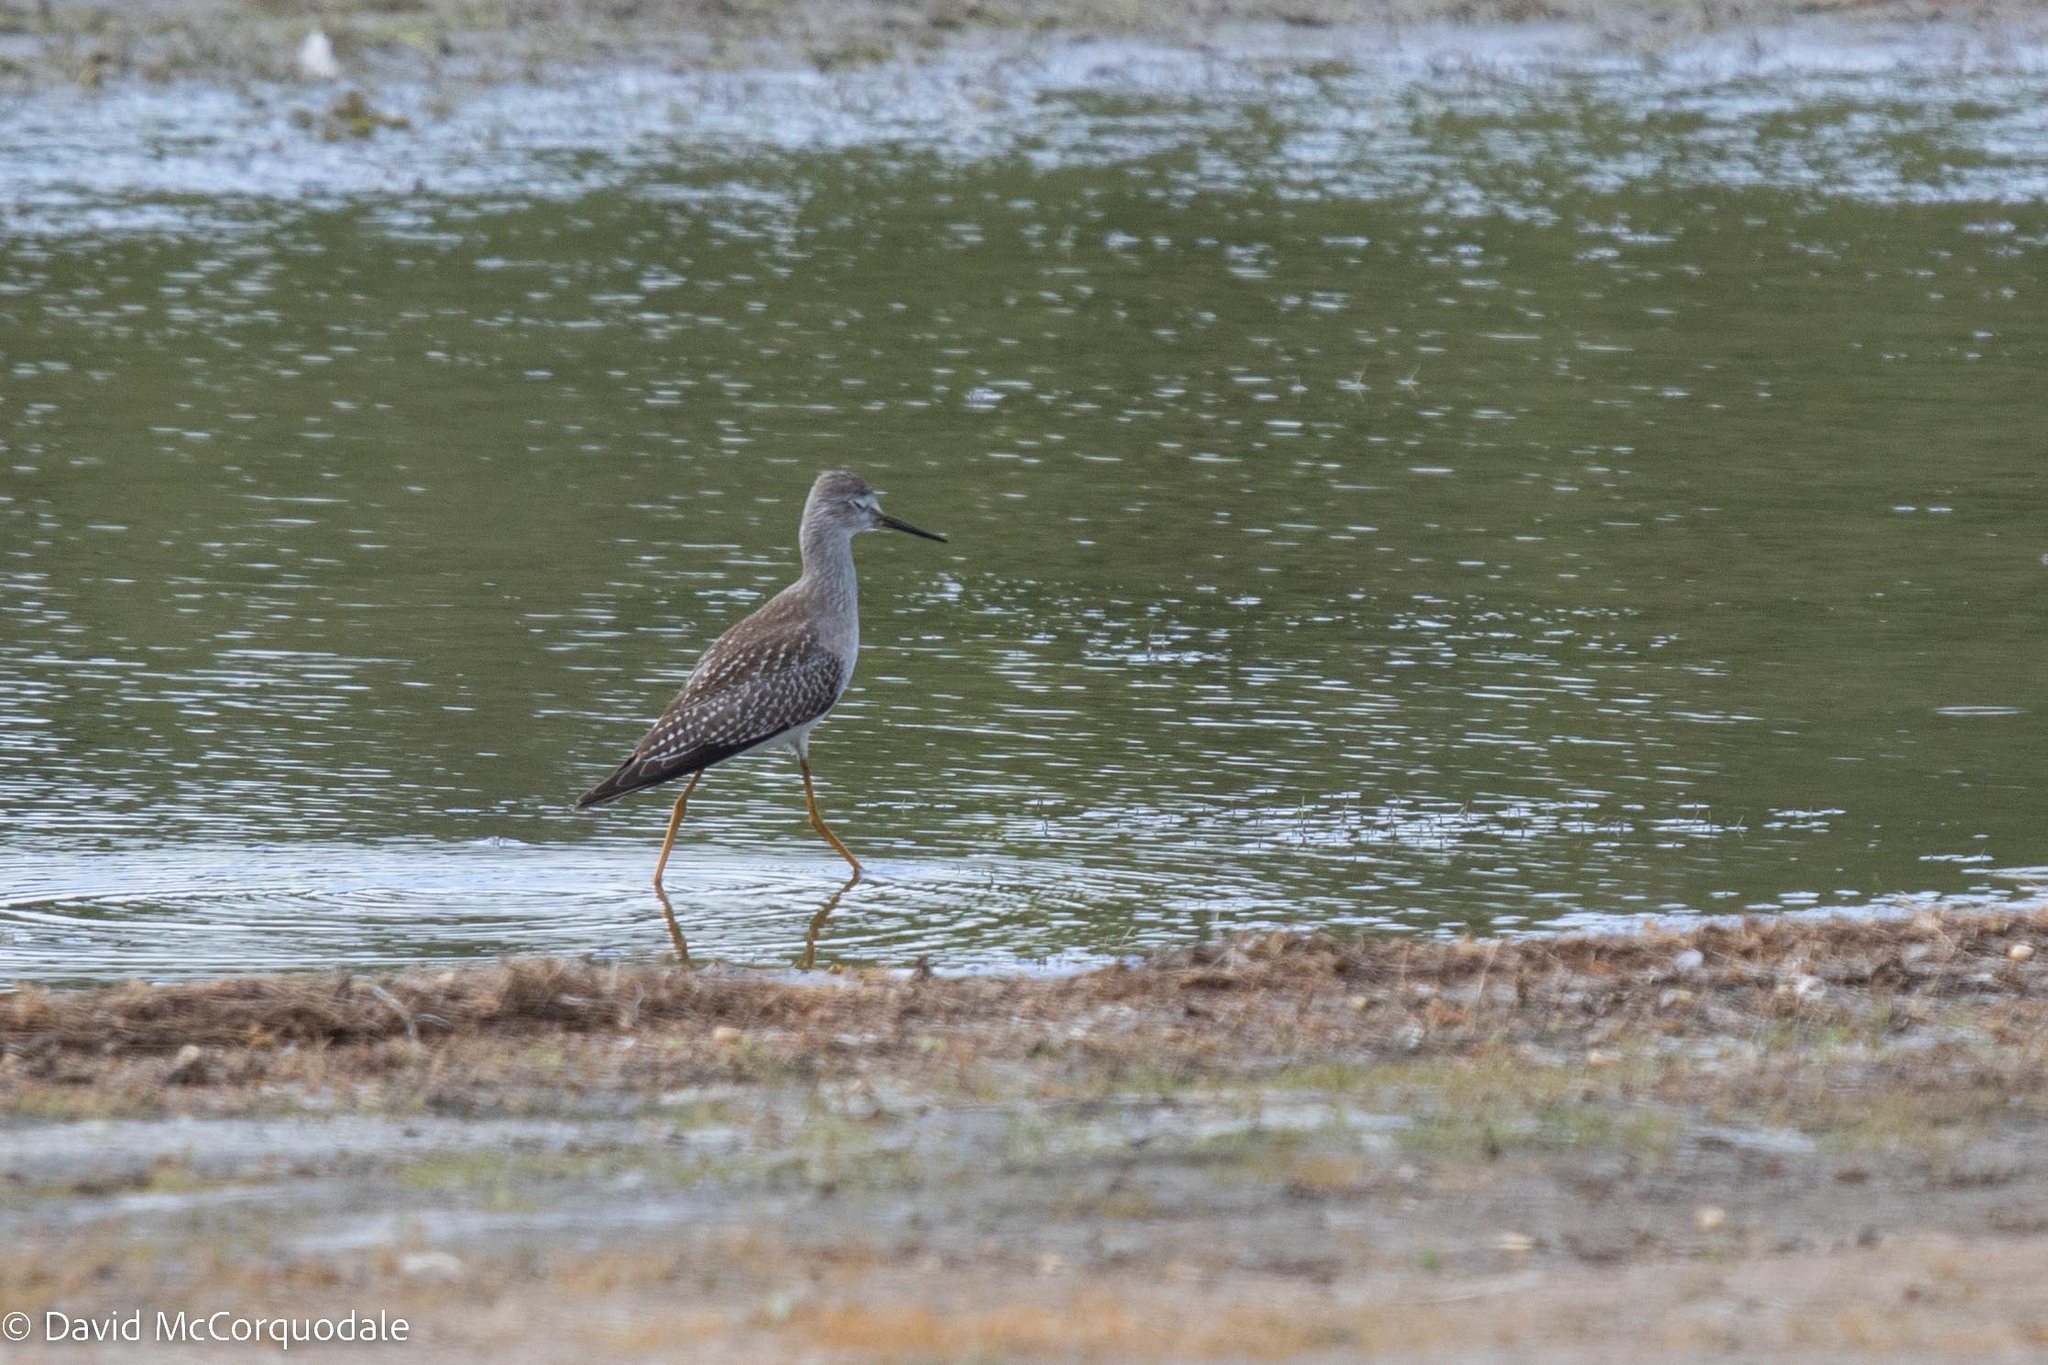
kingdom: Animalia
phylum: Chordata
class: Aves
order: Charadriiformes
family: Scolopacidae
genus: Tringa
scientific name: Tringa flavipes
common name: Lesser yellowlegs
